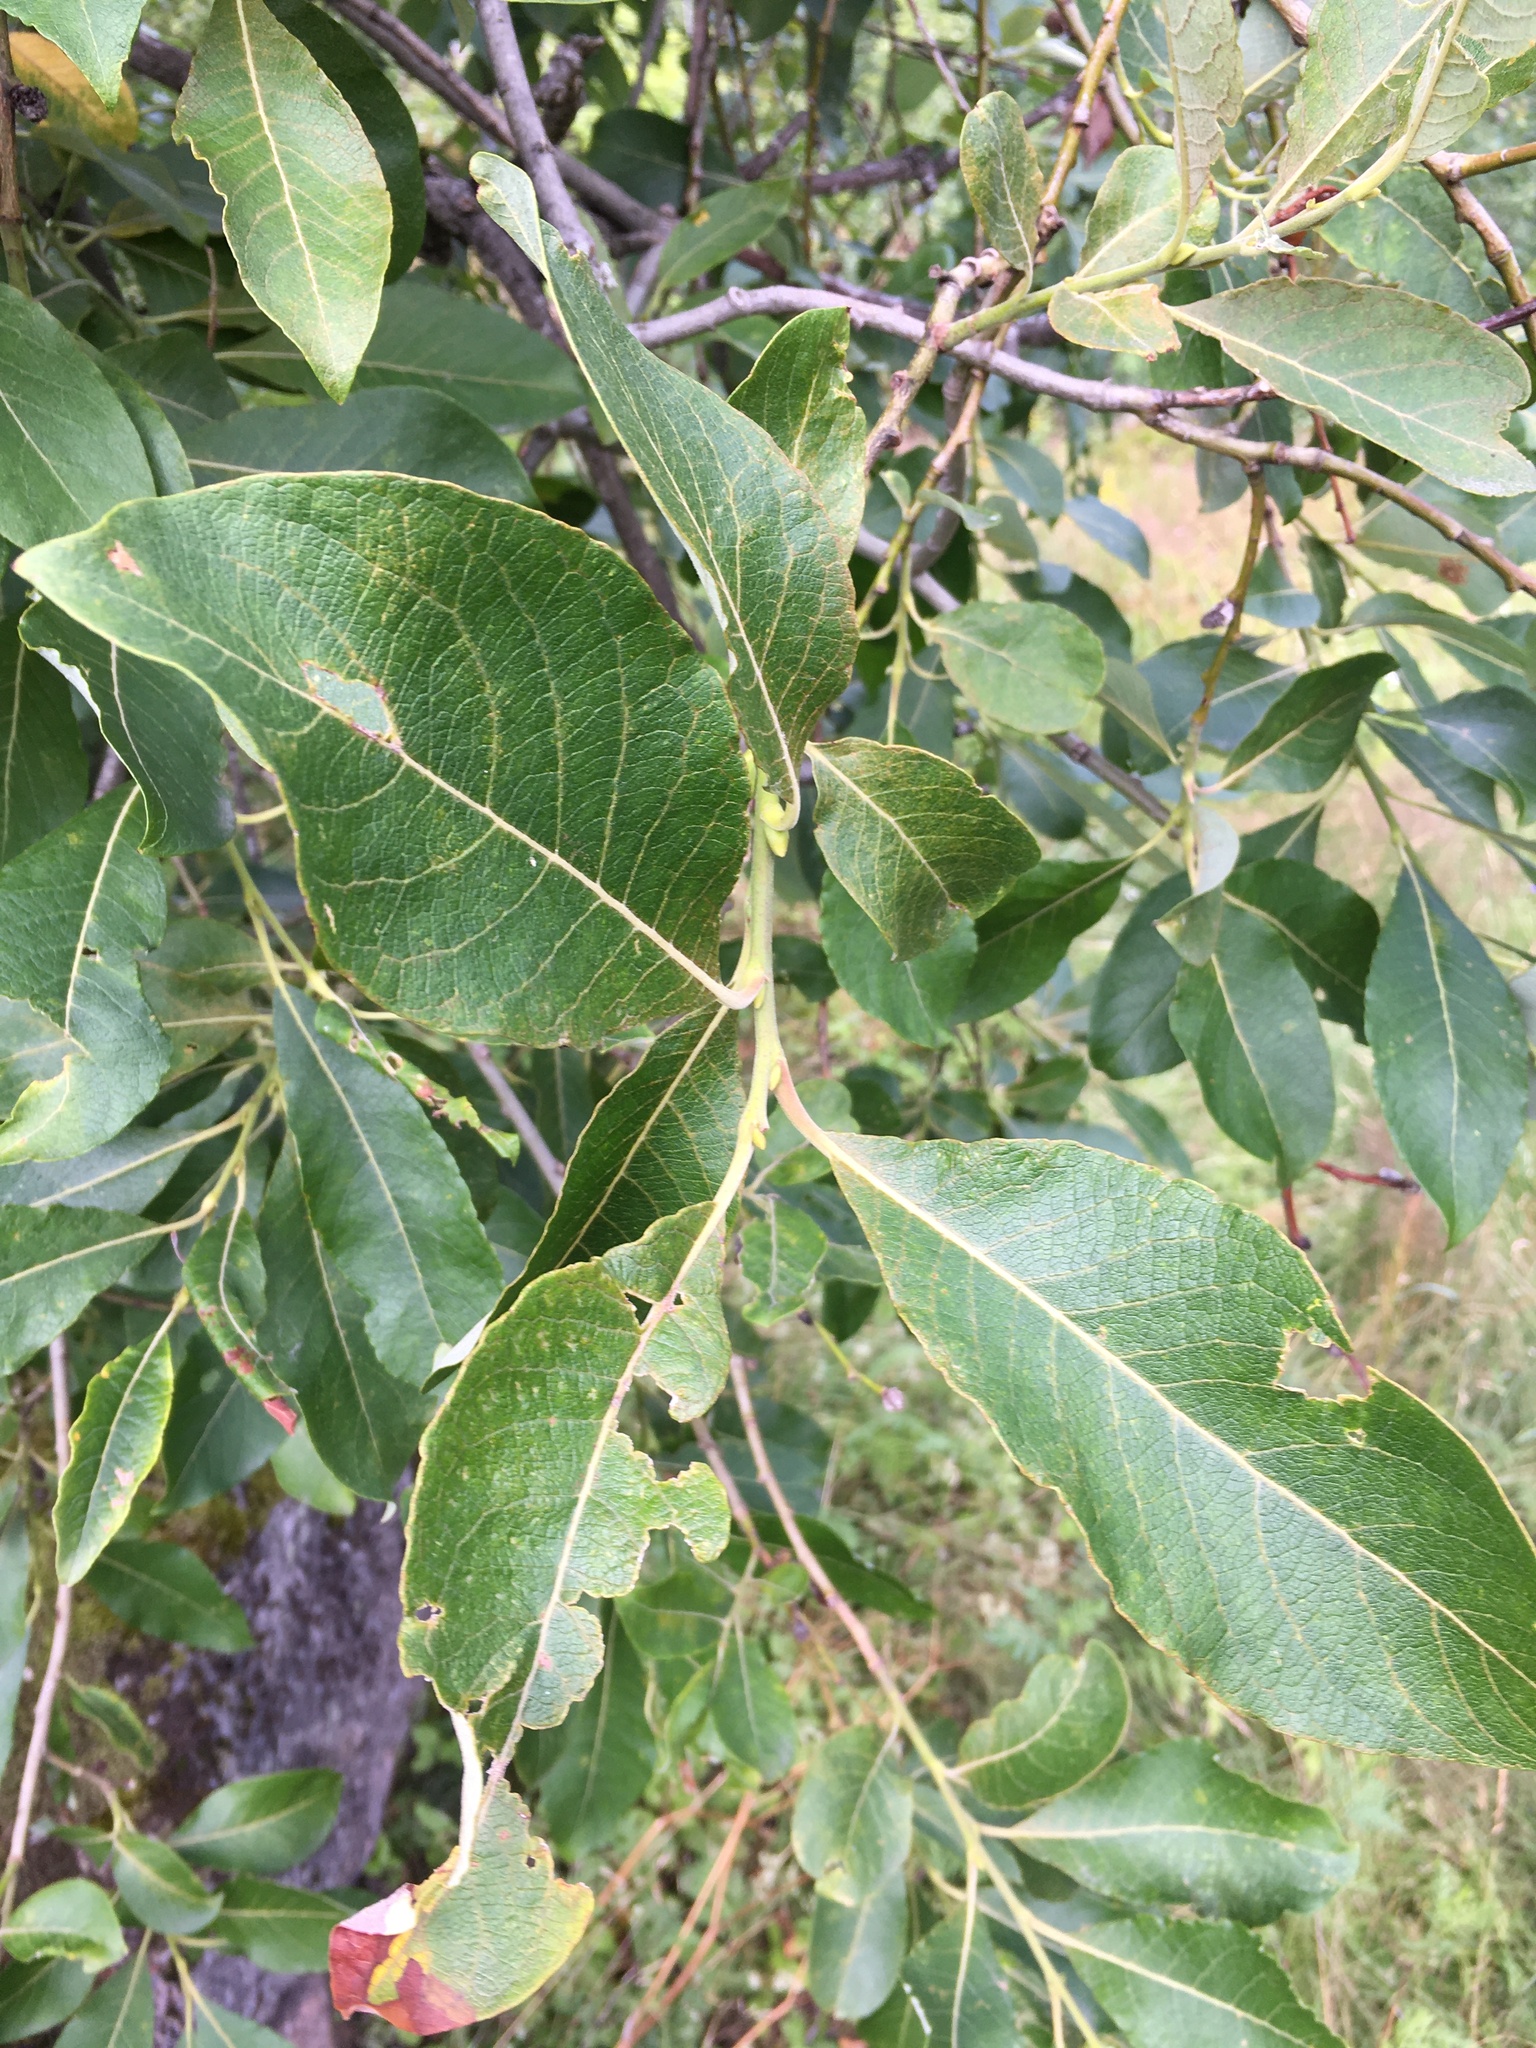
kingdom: Plantae
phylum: Tracheophyta
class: Magnoliopsida
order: Malpighiales
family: Salicaceae
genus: Salix
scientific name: Salix caprea
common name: Goat willow
